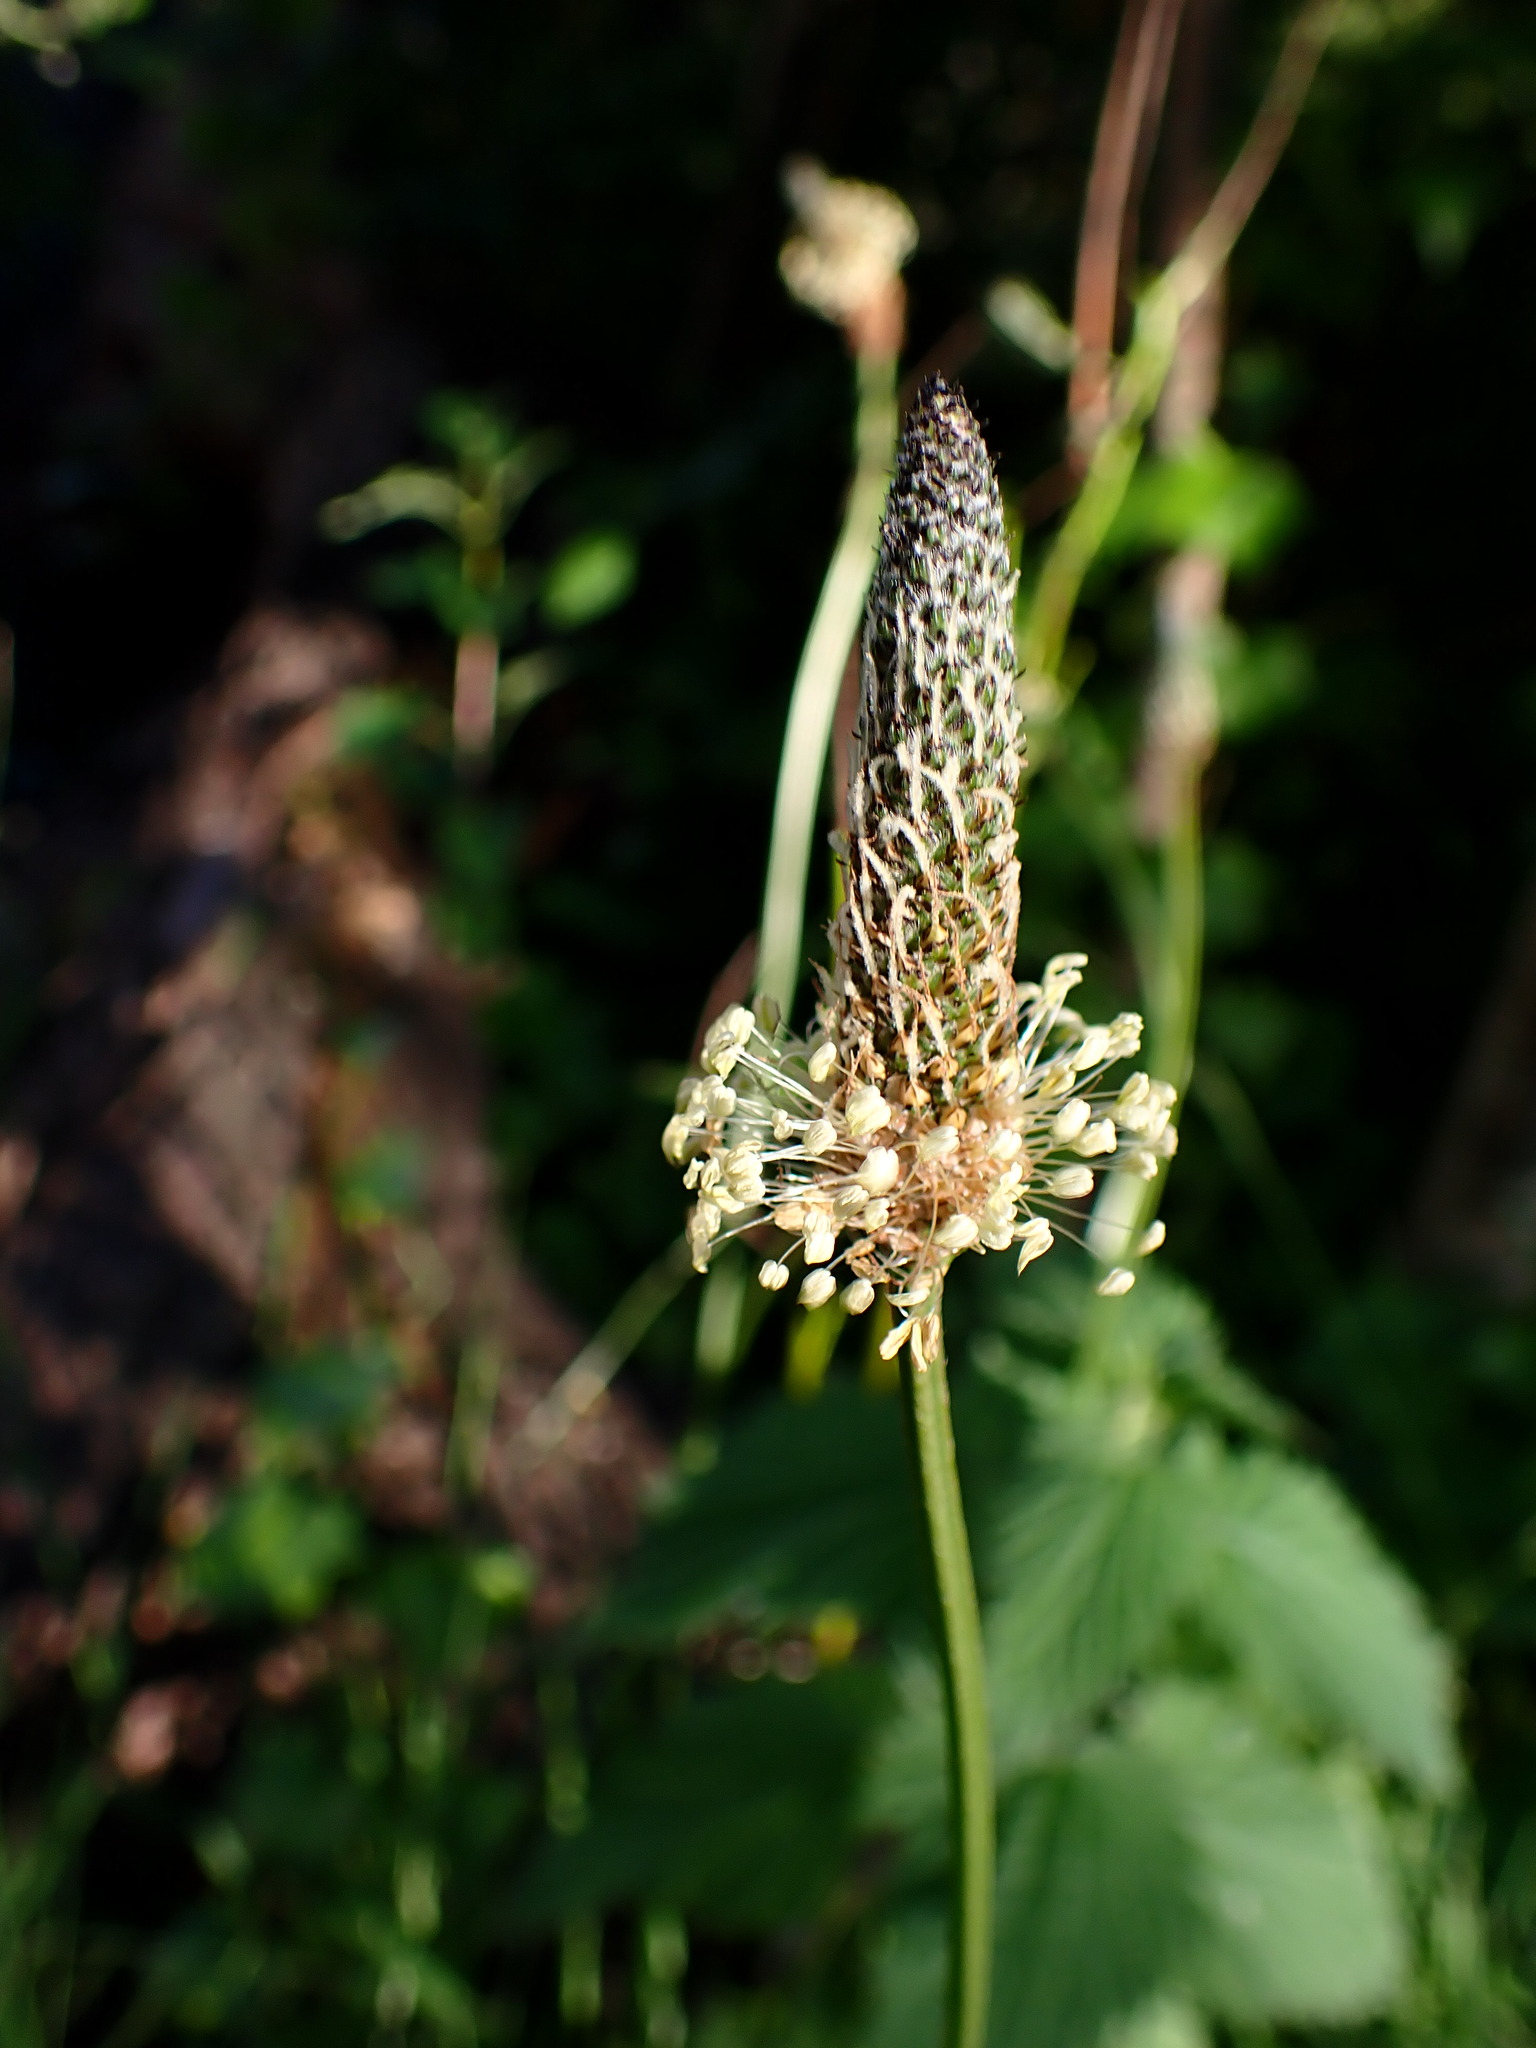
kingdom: Plantae
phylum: Tracheophyta
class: Magnoliopsida
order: Lamiales
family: Plantaginaceae
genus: Plantago
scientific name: Plantago lanceolata
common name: Ribwort plantain
